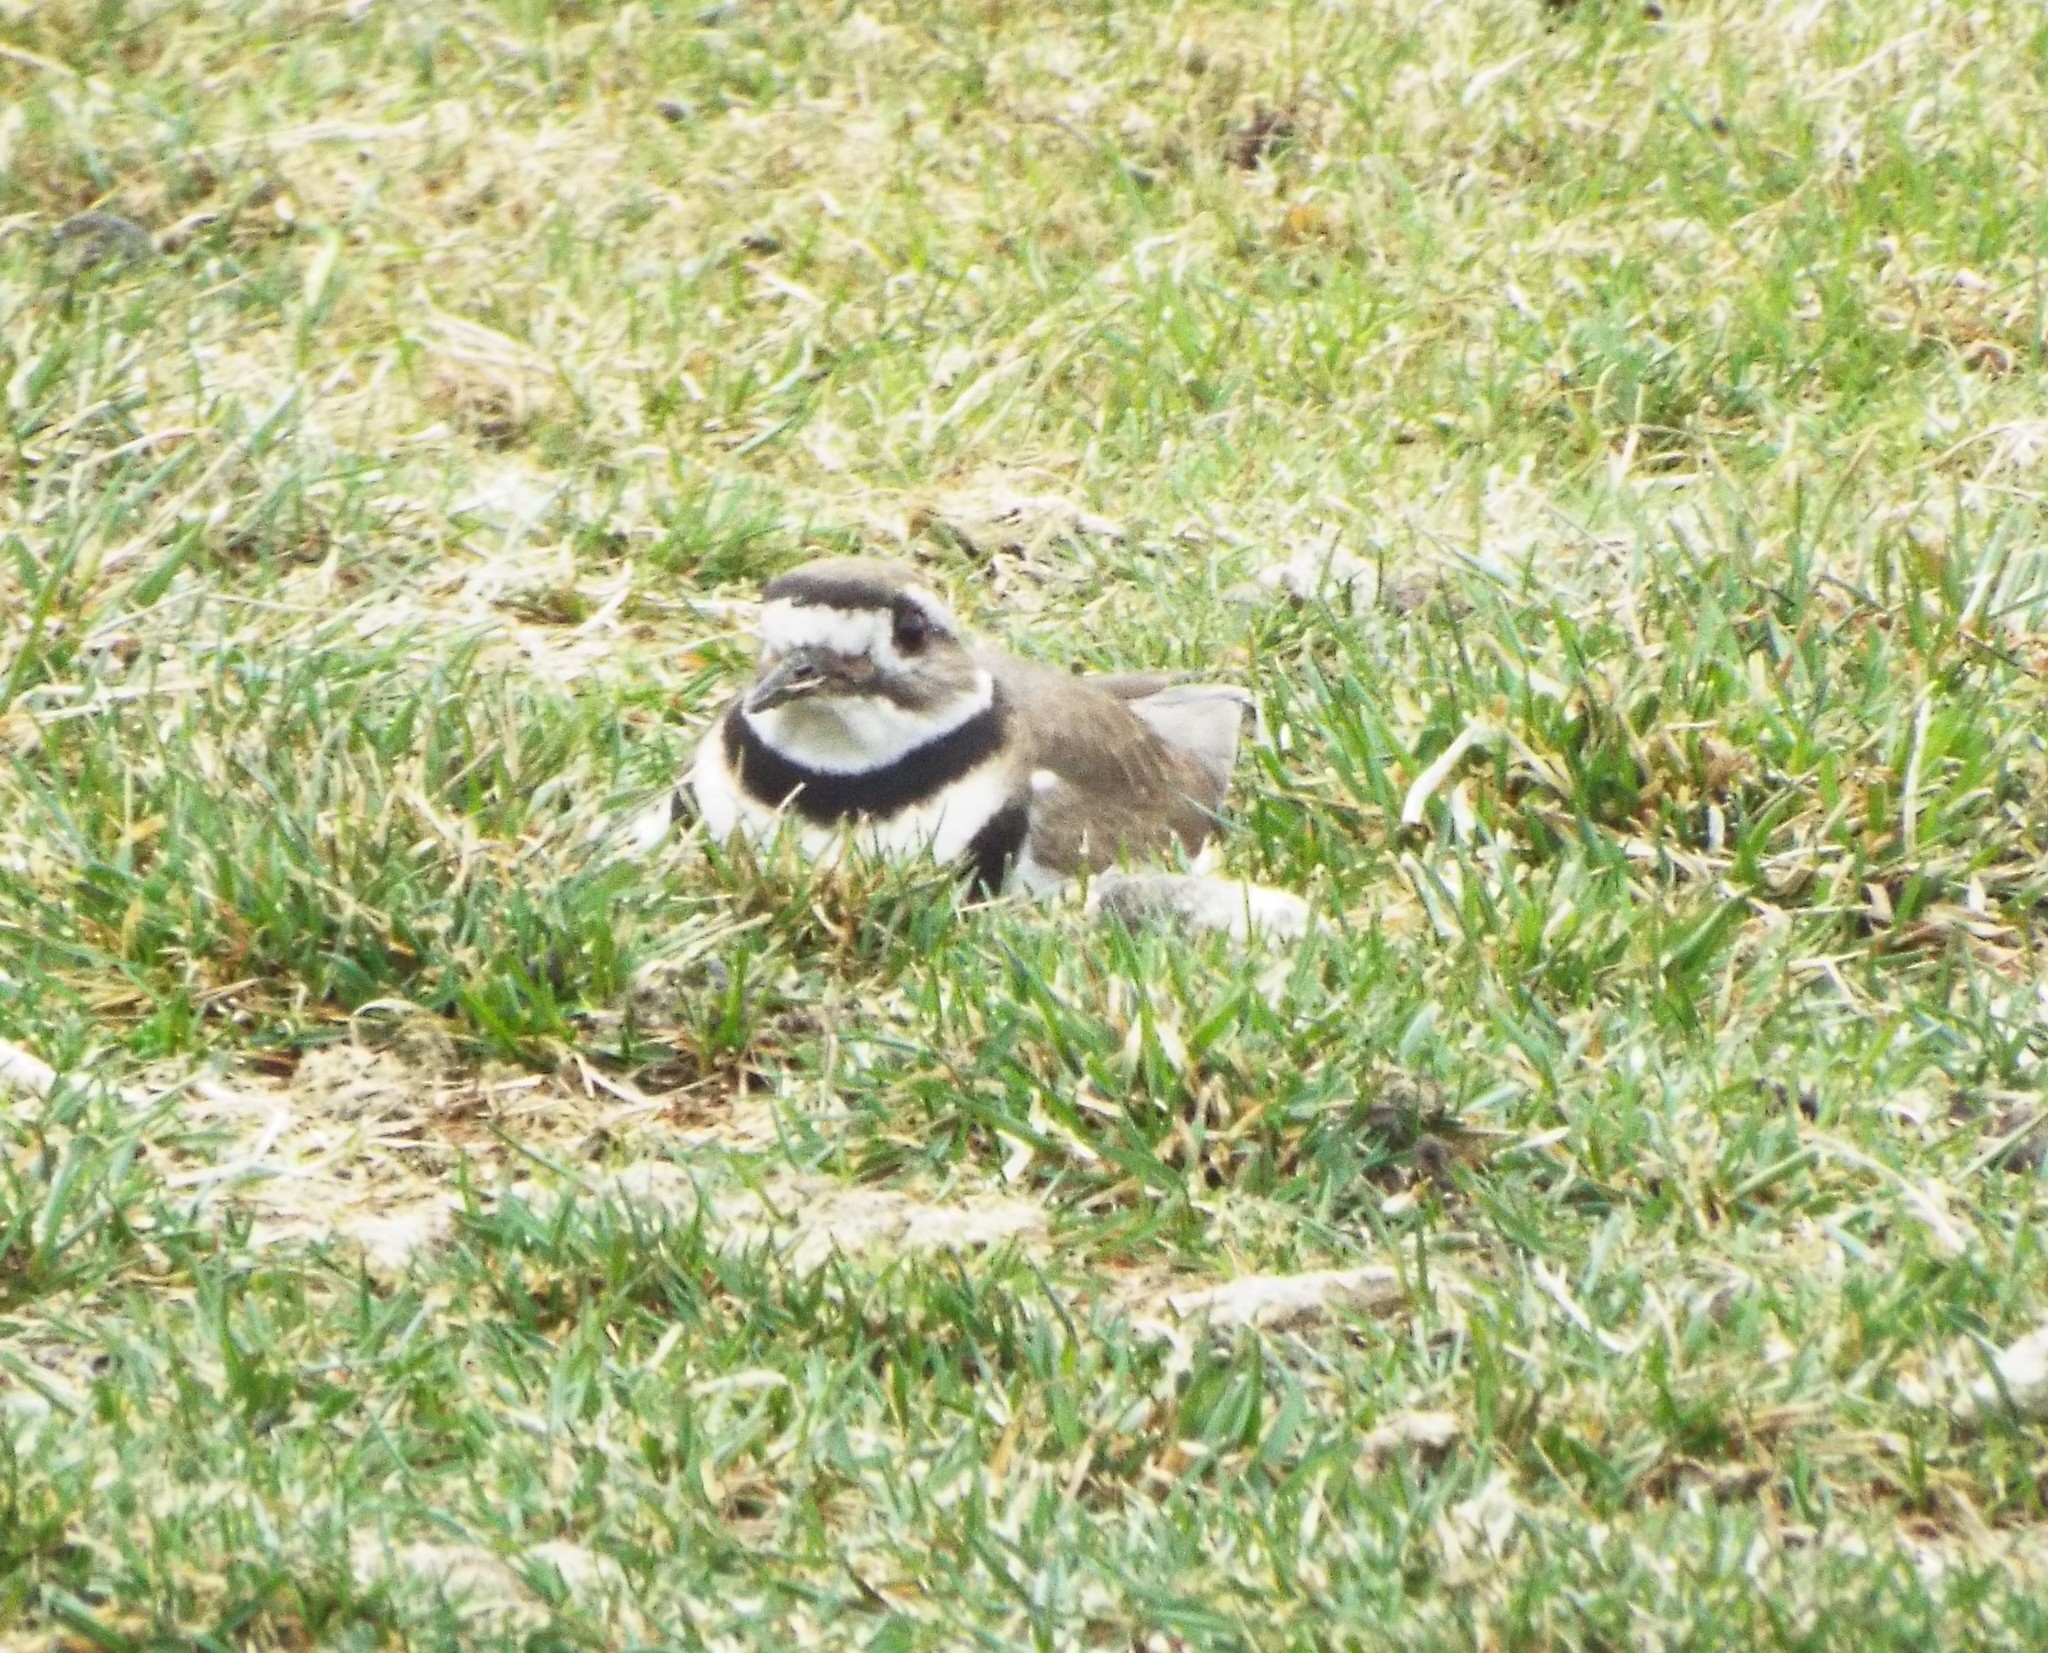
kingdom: Animalia
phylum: Chordata
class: Aves
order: Charadriiformes
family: Charadriidae
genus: Charadrius
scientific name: Charadrius vociferus
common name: Killdeer
